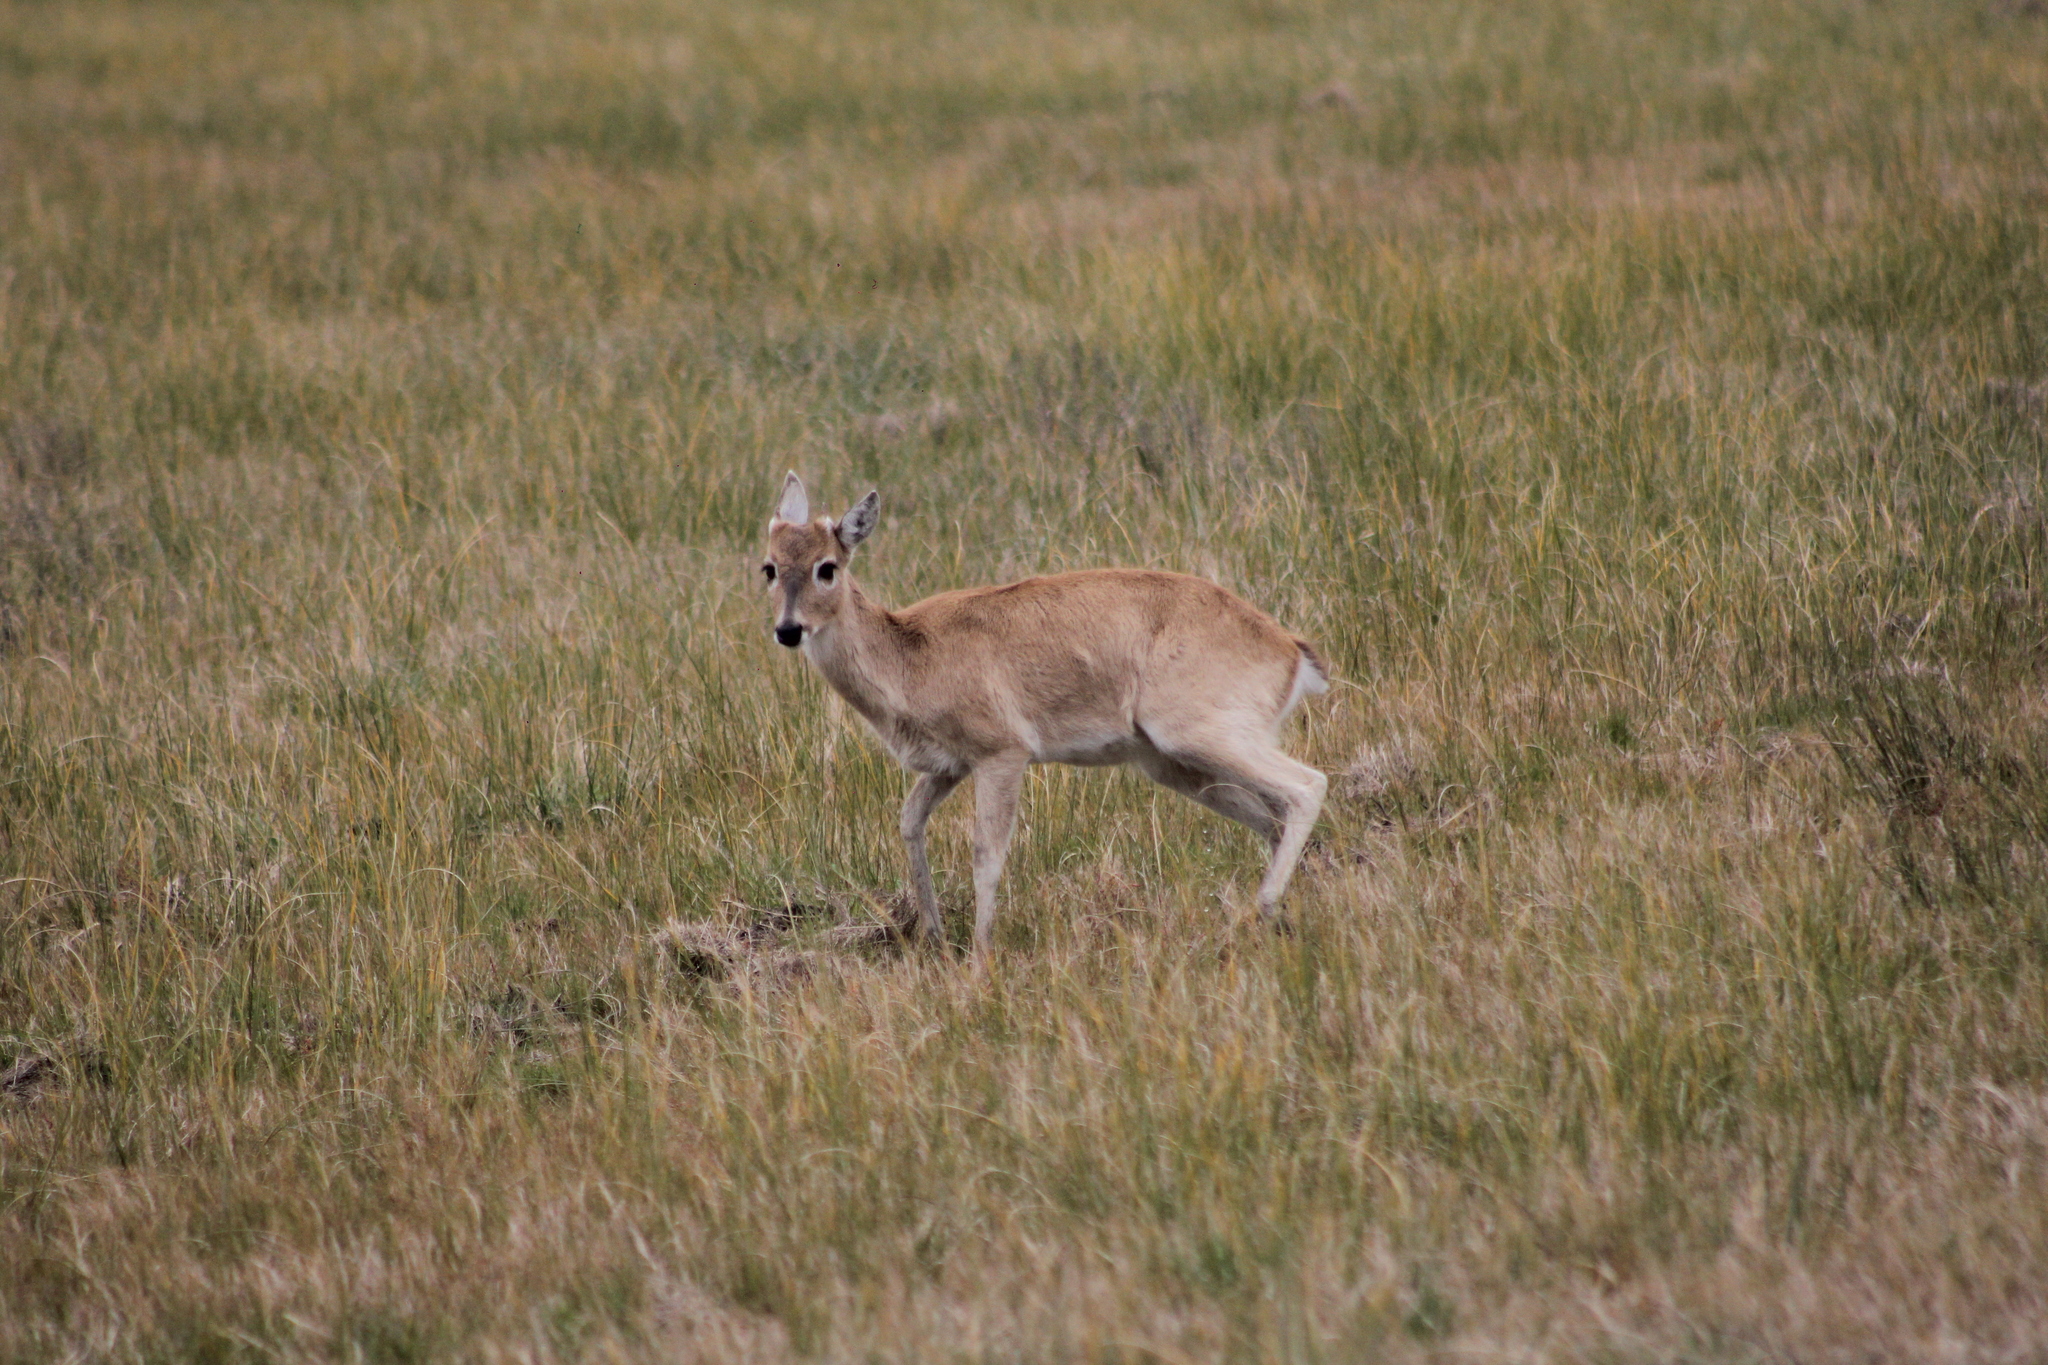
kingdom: Animalia
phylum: Chordata
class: Mammalia
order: Artiodactyla
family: Cervidae
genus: Ozotoceros
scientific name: Ozotoceros bezoarticus
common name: Pampas deer
